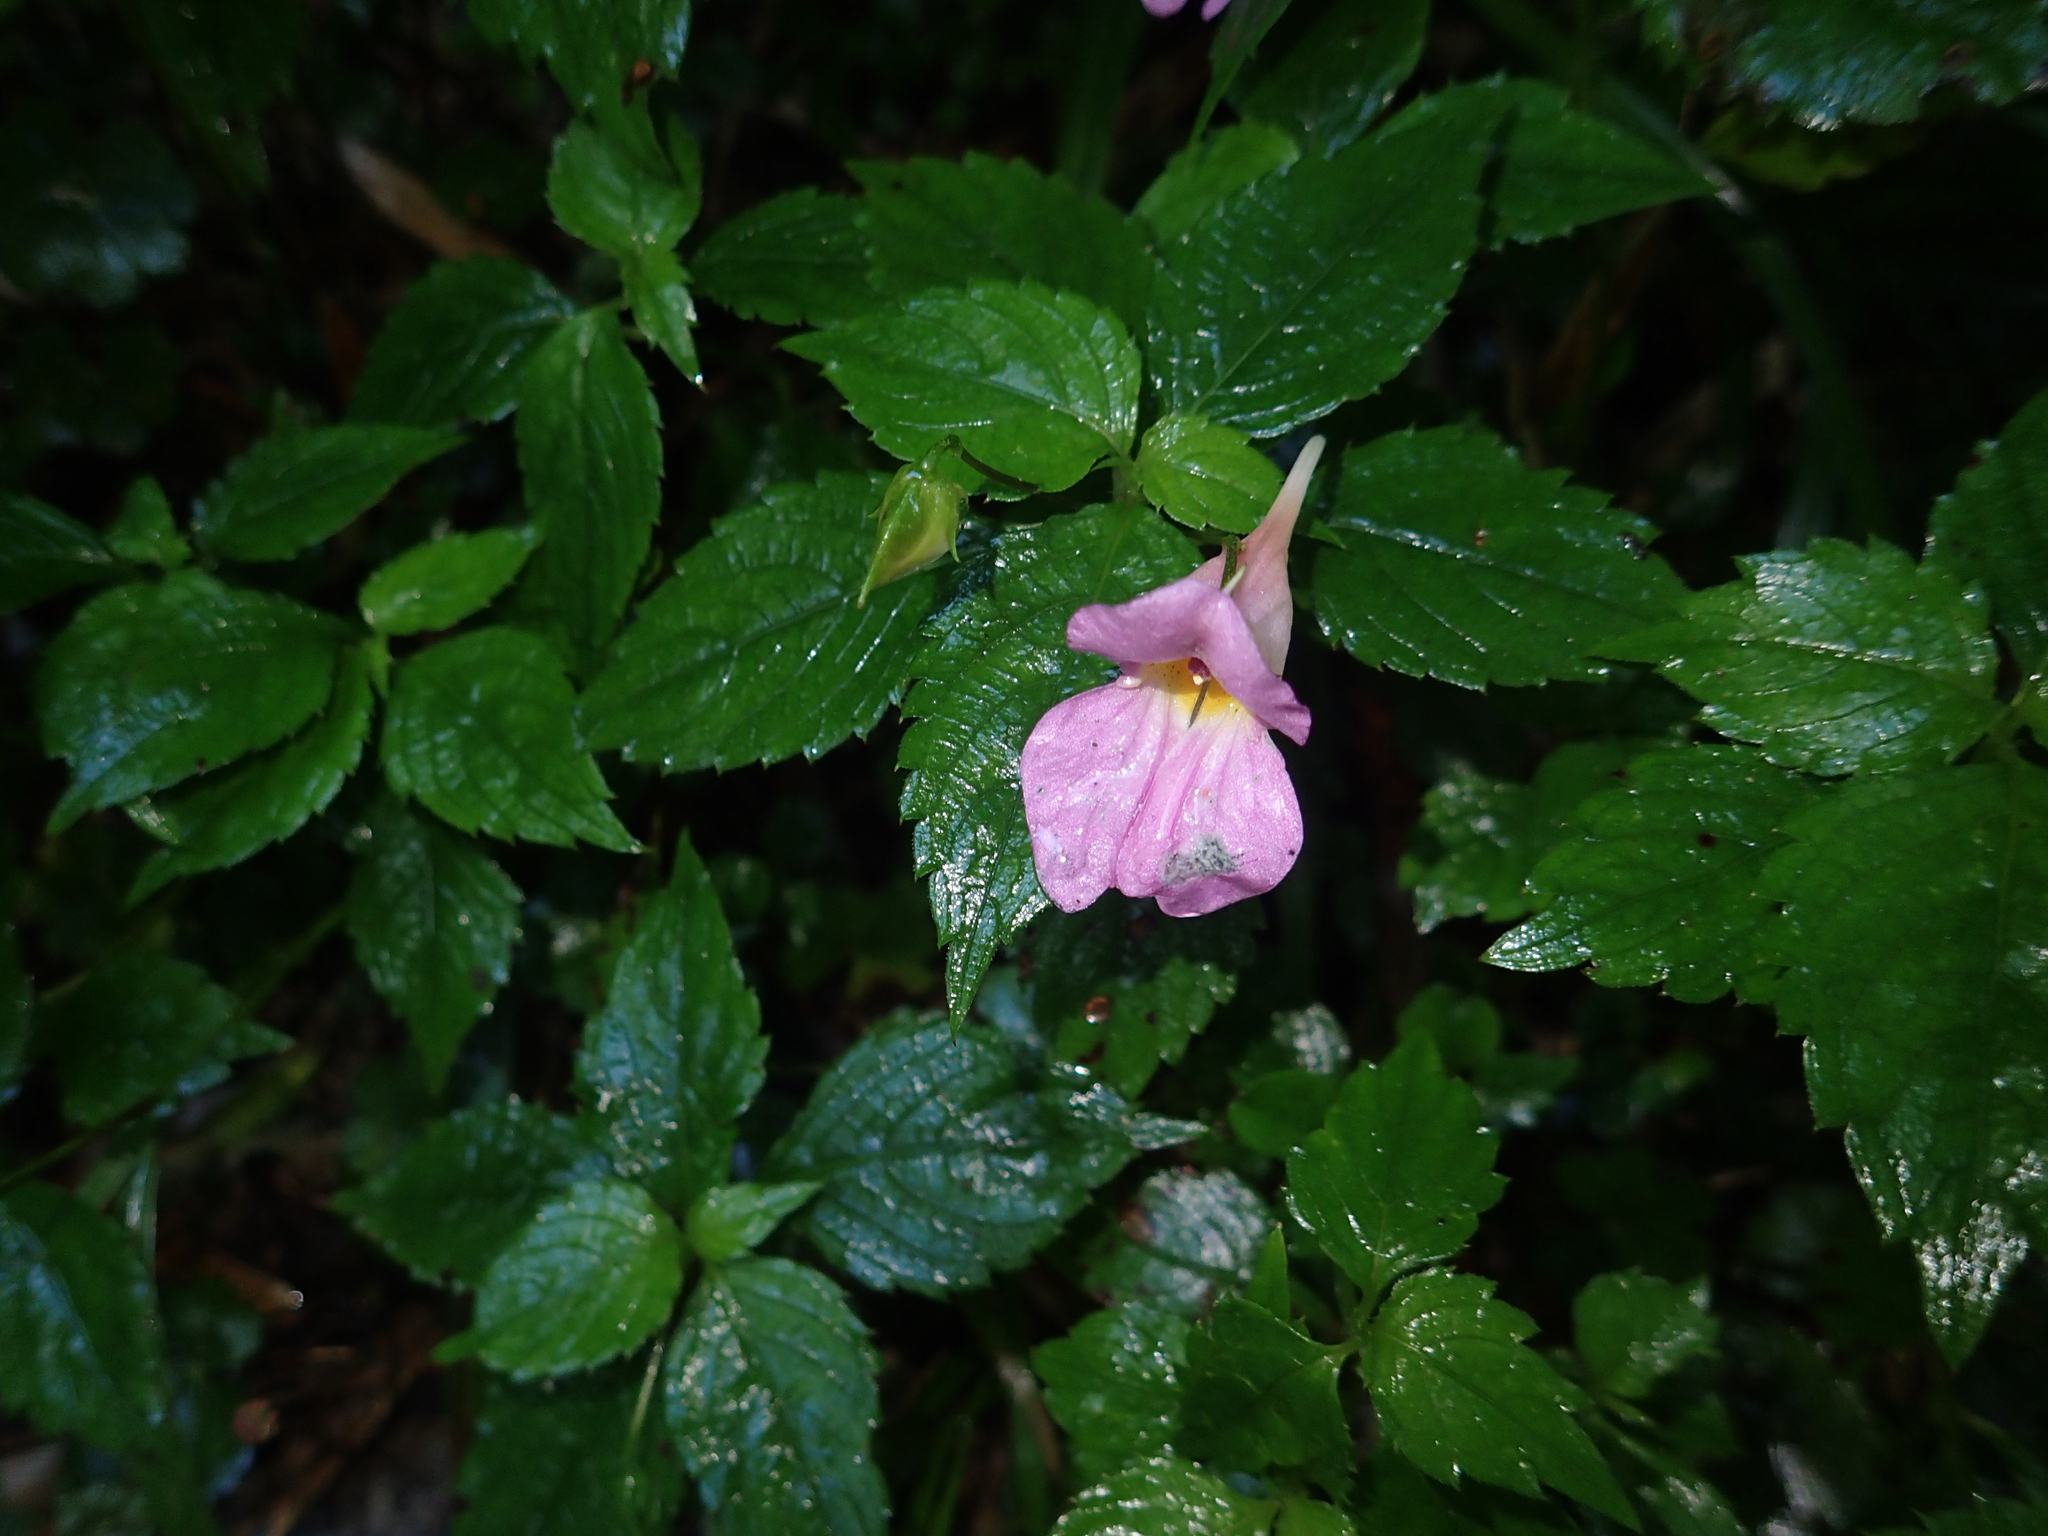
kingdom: Plantae
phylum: Tracheophyta
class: Magnoliopsida
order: Ericales
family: Balsaminaceae
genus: Impatiens
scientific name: Impatiens uniflora
